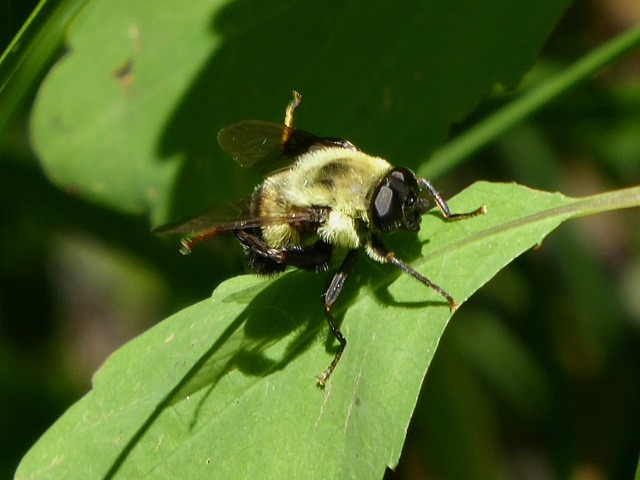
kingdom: Animalia
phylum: Arthropoda
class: Insecta
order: Diptera
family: Syrphidae
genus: Imatisma
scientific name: Imatisma posticata
